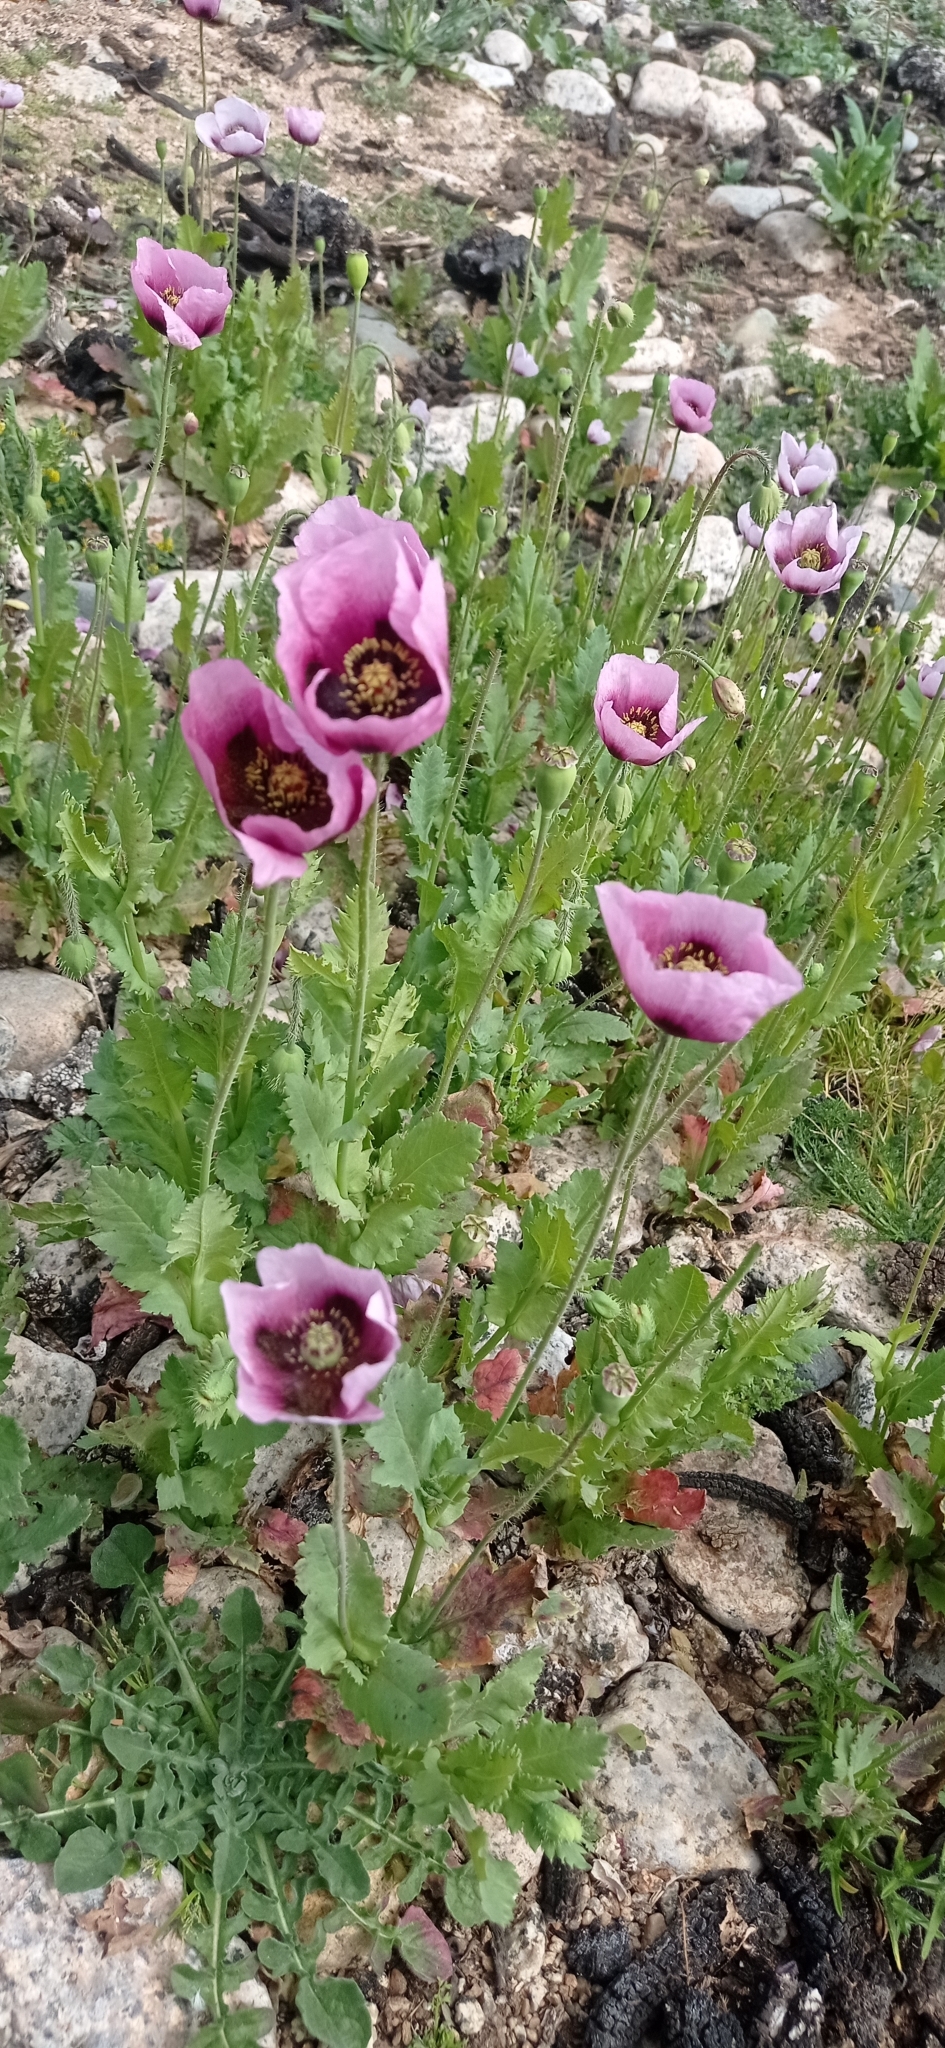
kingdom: Plantae
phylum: Tracheophyta
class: Magnoliopsida
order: Ranunculales
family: Papaveraceae
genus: Papaver
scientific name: Papaver somniferum
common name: Opium poppy
